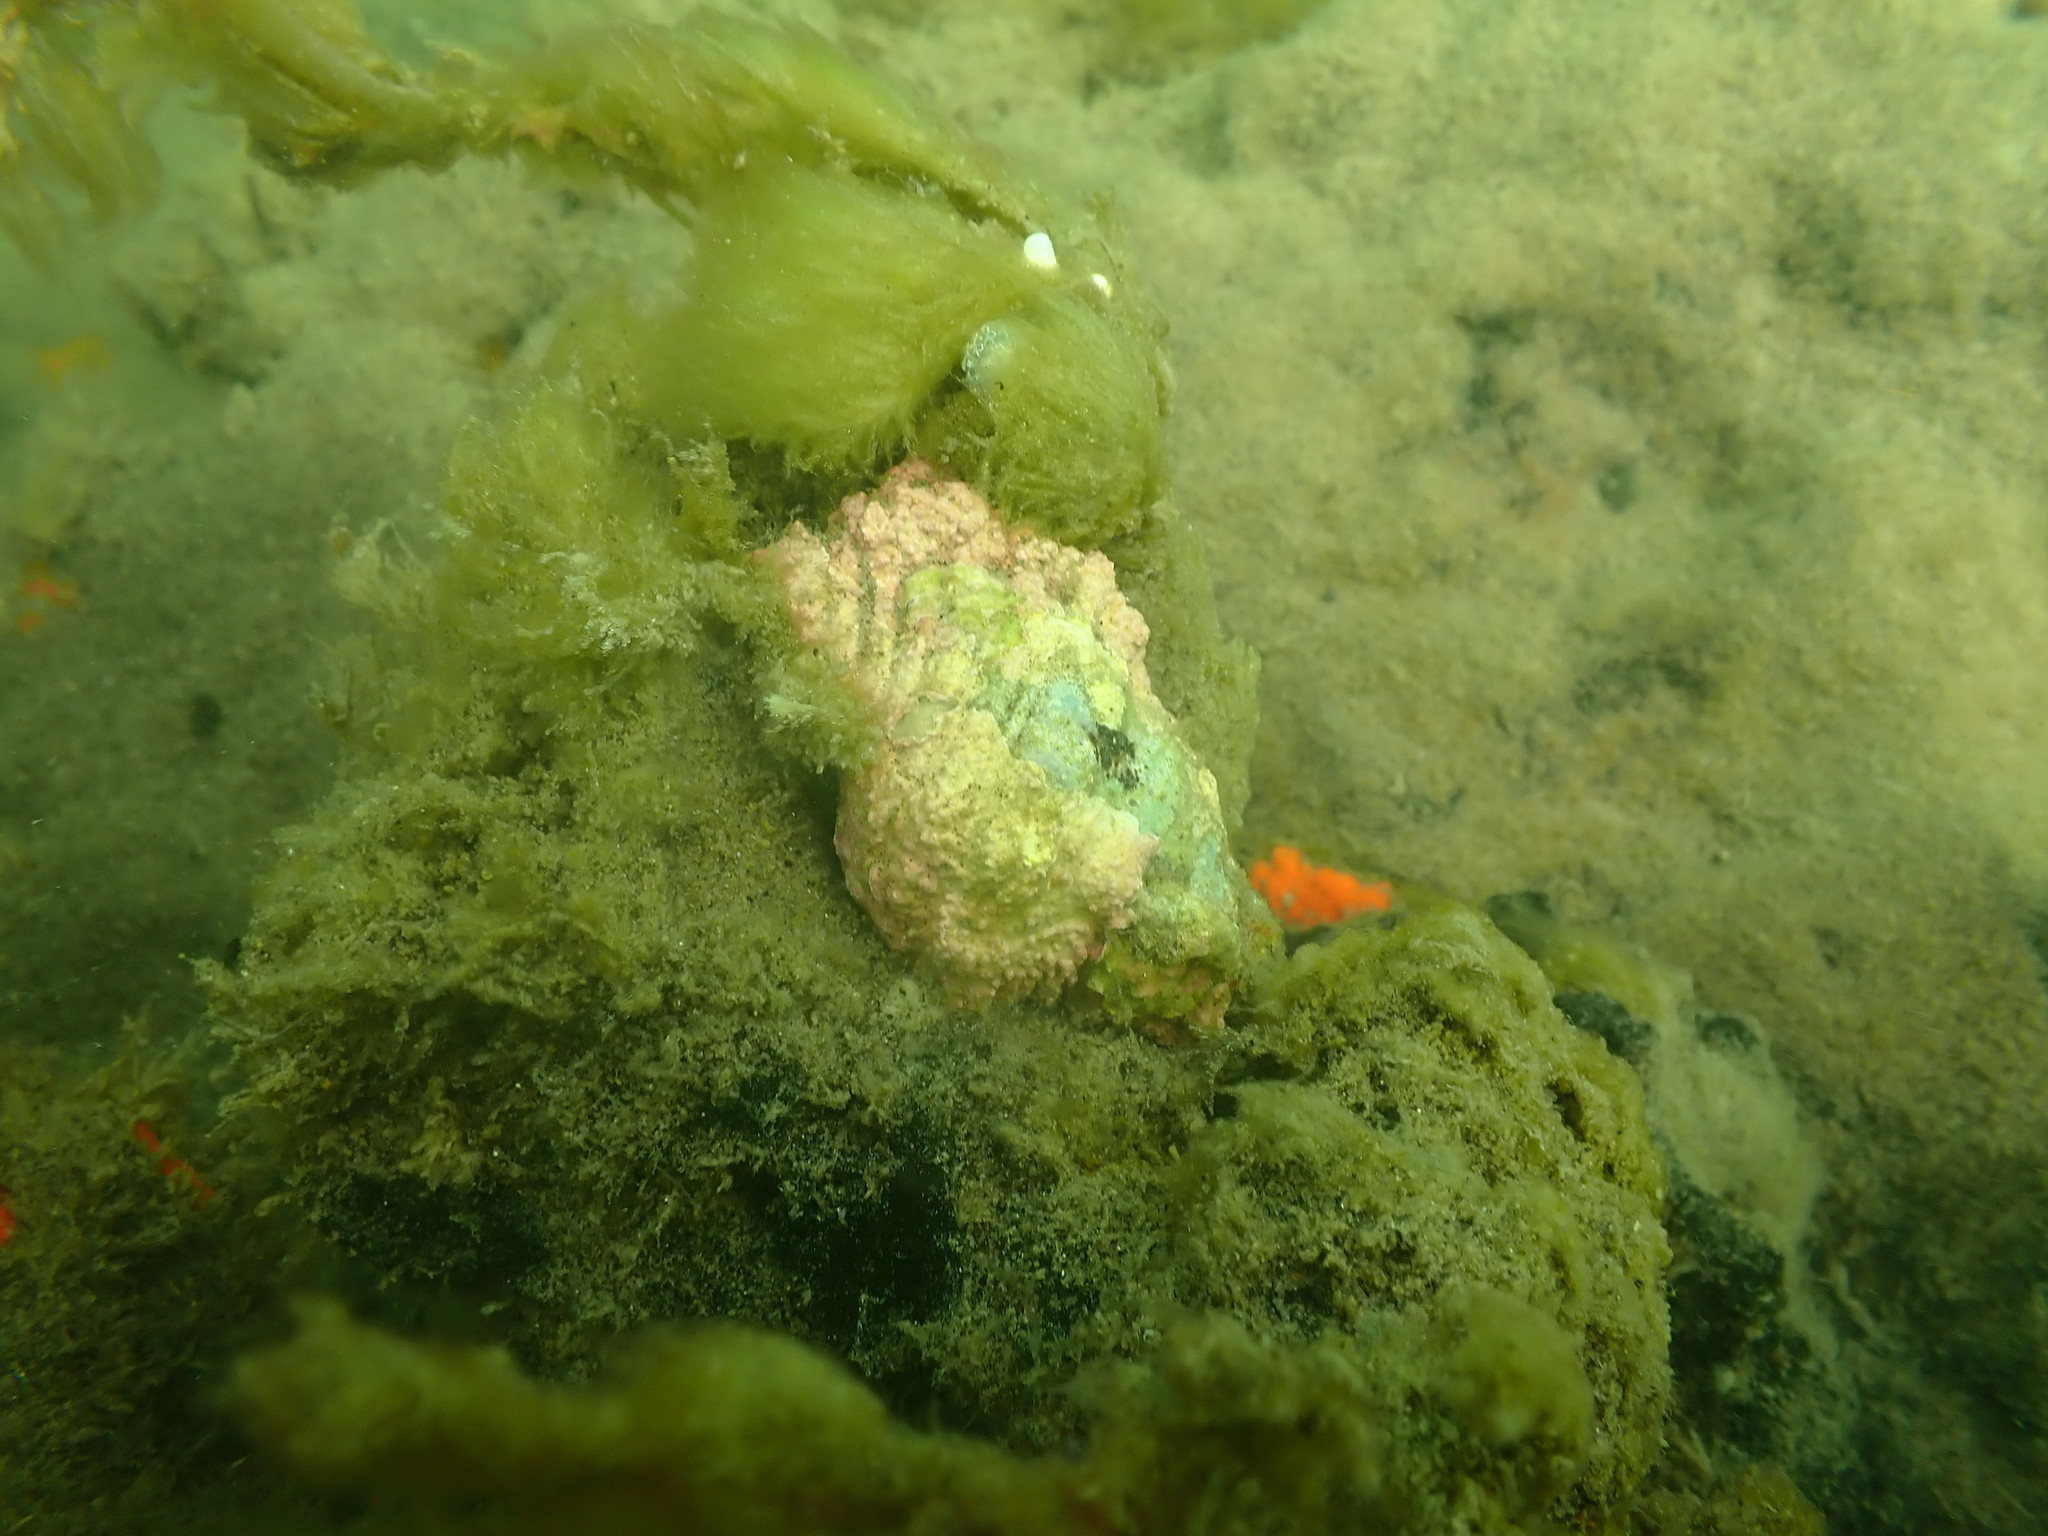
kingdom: Animalia
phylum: Mollusca
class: Gastropoda
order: Littorinimorpha
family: Cymatiidae
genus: Cabestana
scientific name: Cabestana spengleri
